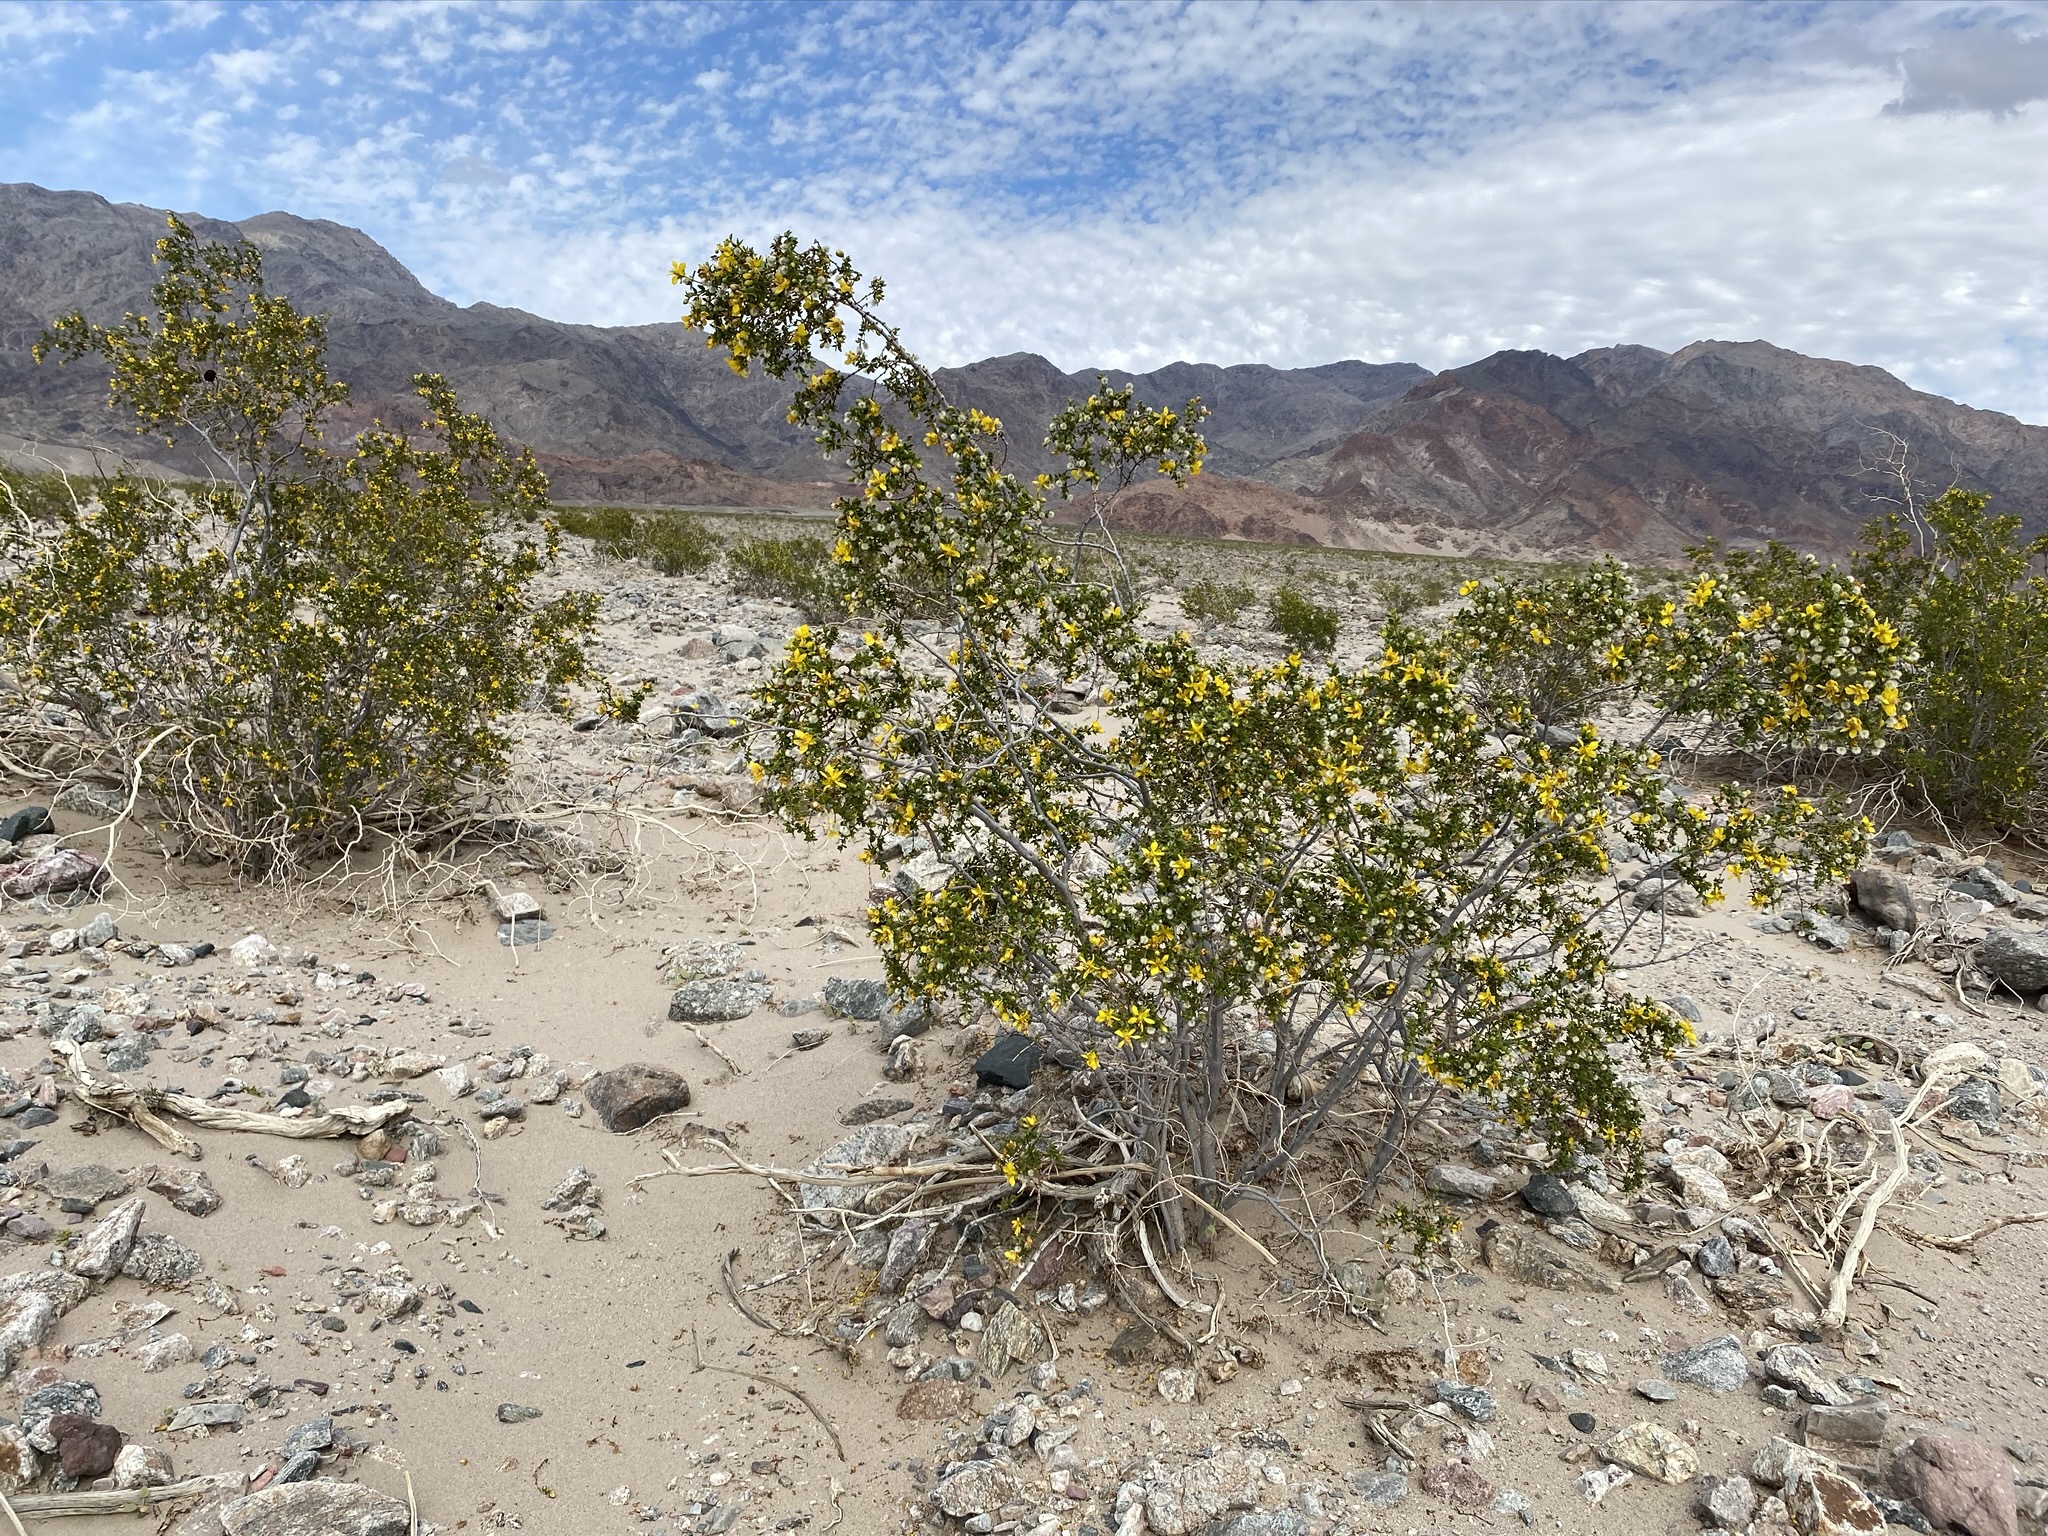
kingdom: Plantae
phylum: Tracheophyta
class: Magnoliopsida
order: Zygophyllales
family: Zygophyllaceae
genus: Larrea
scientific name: Larrea tridentata
